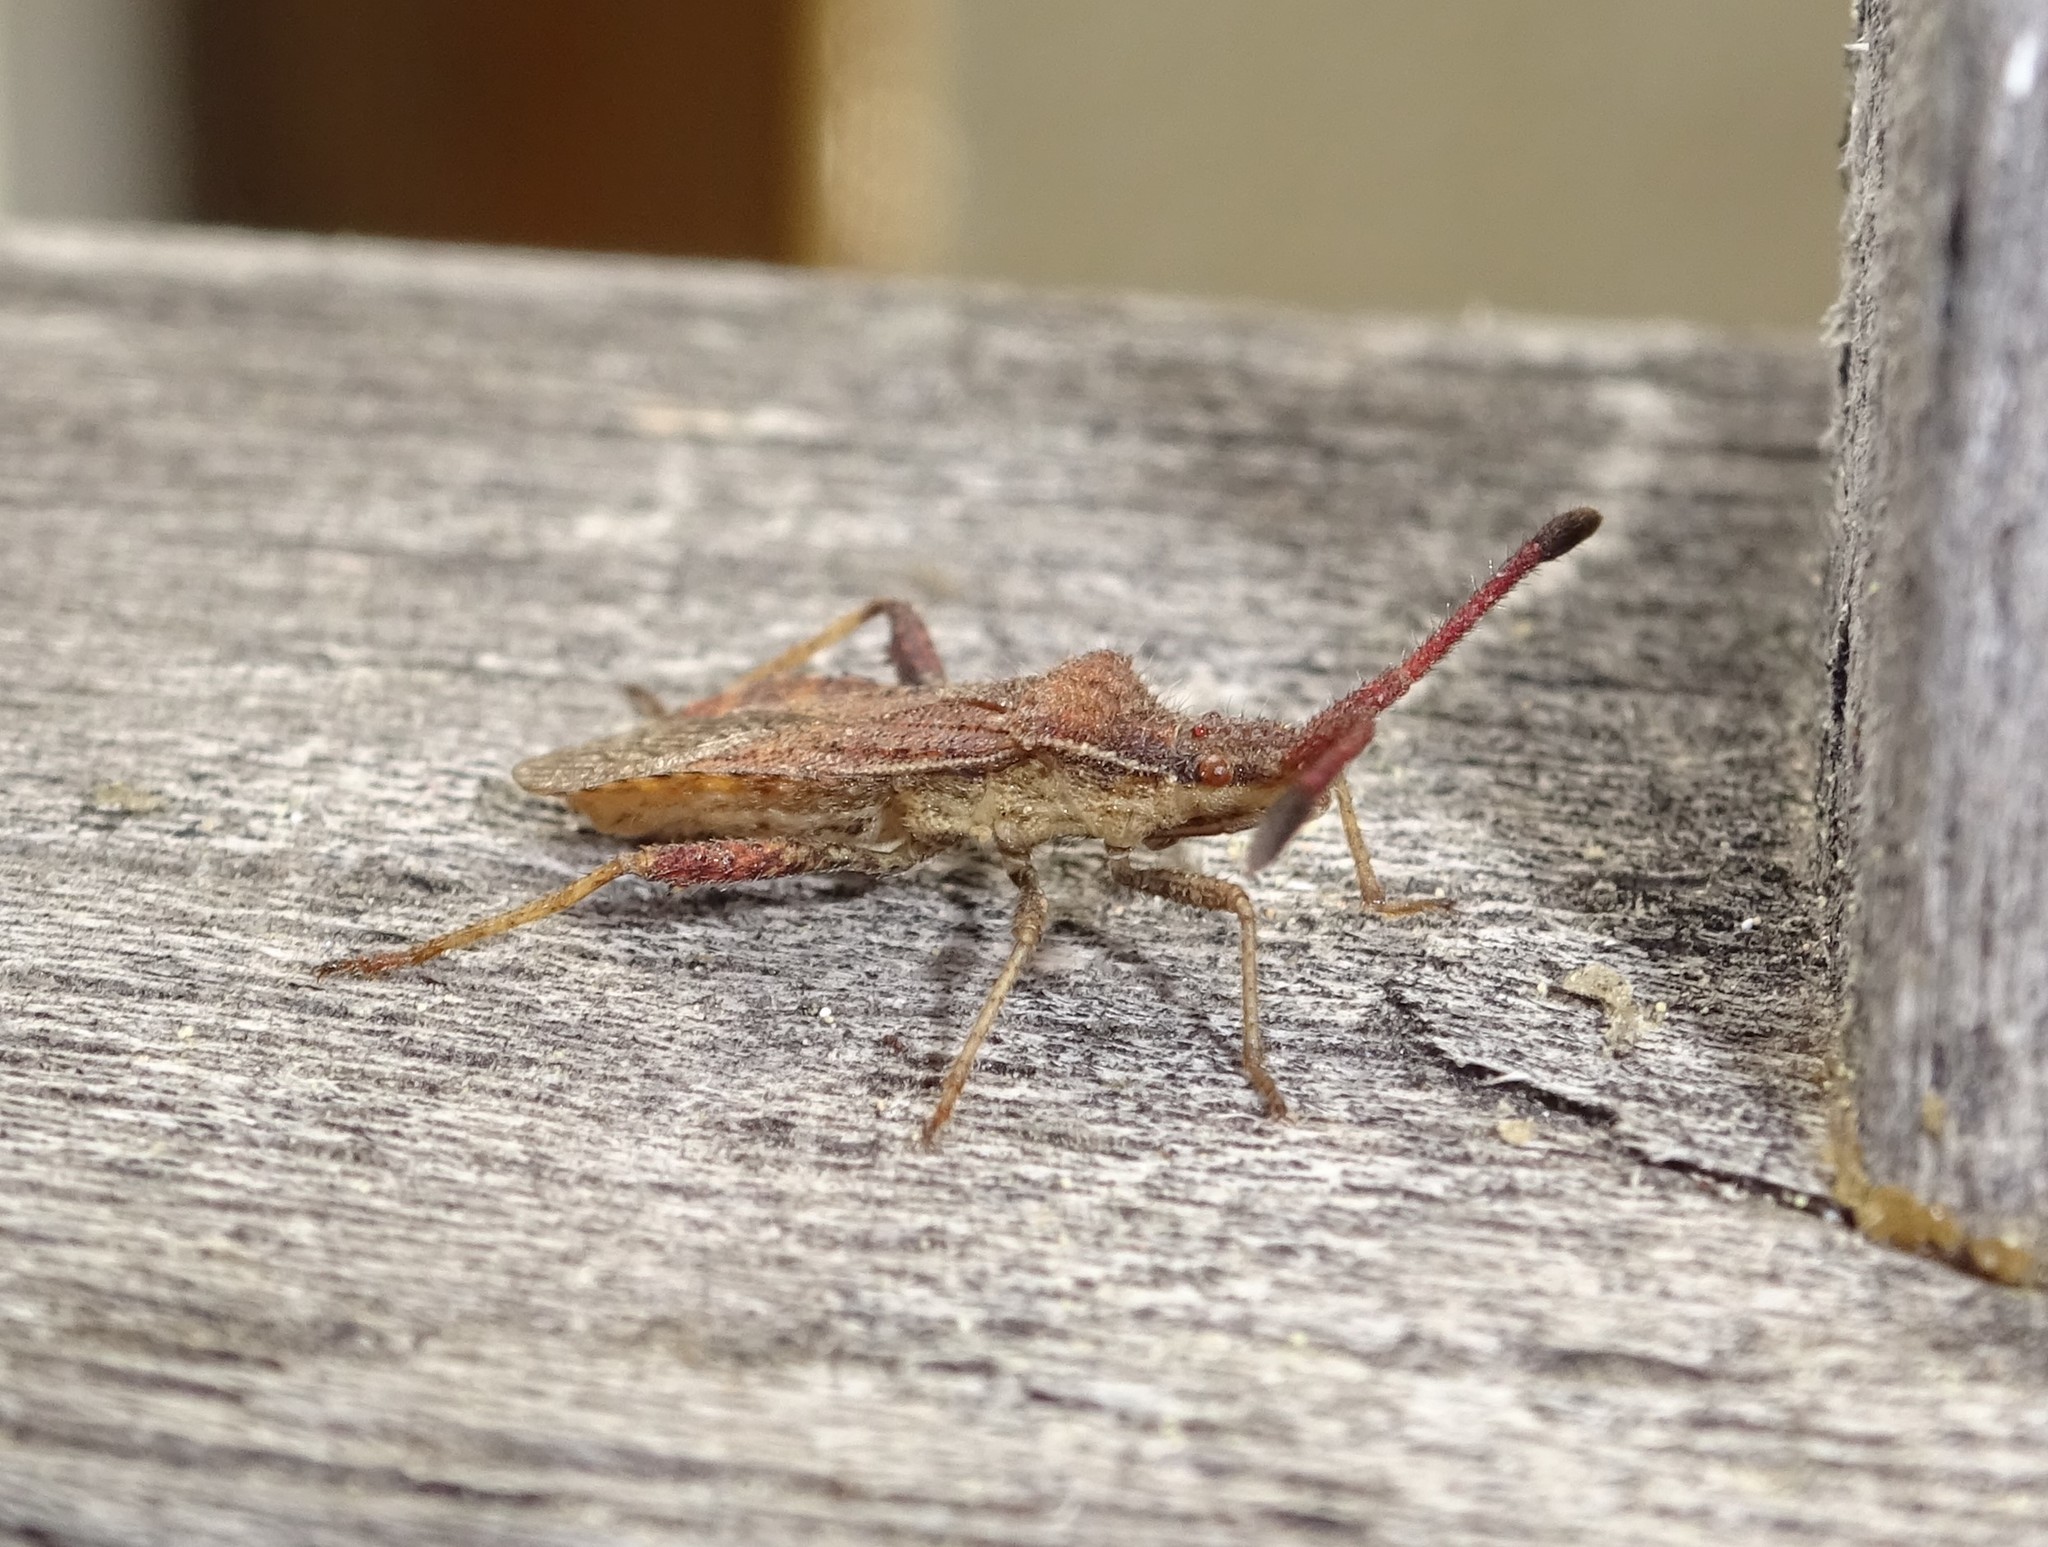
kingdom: Animalia
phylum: Arthropoda
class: Insecta
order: Hemiptera
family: Coreidae
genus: Coriomeris
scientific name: Coriomeris denticulatus
